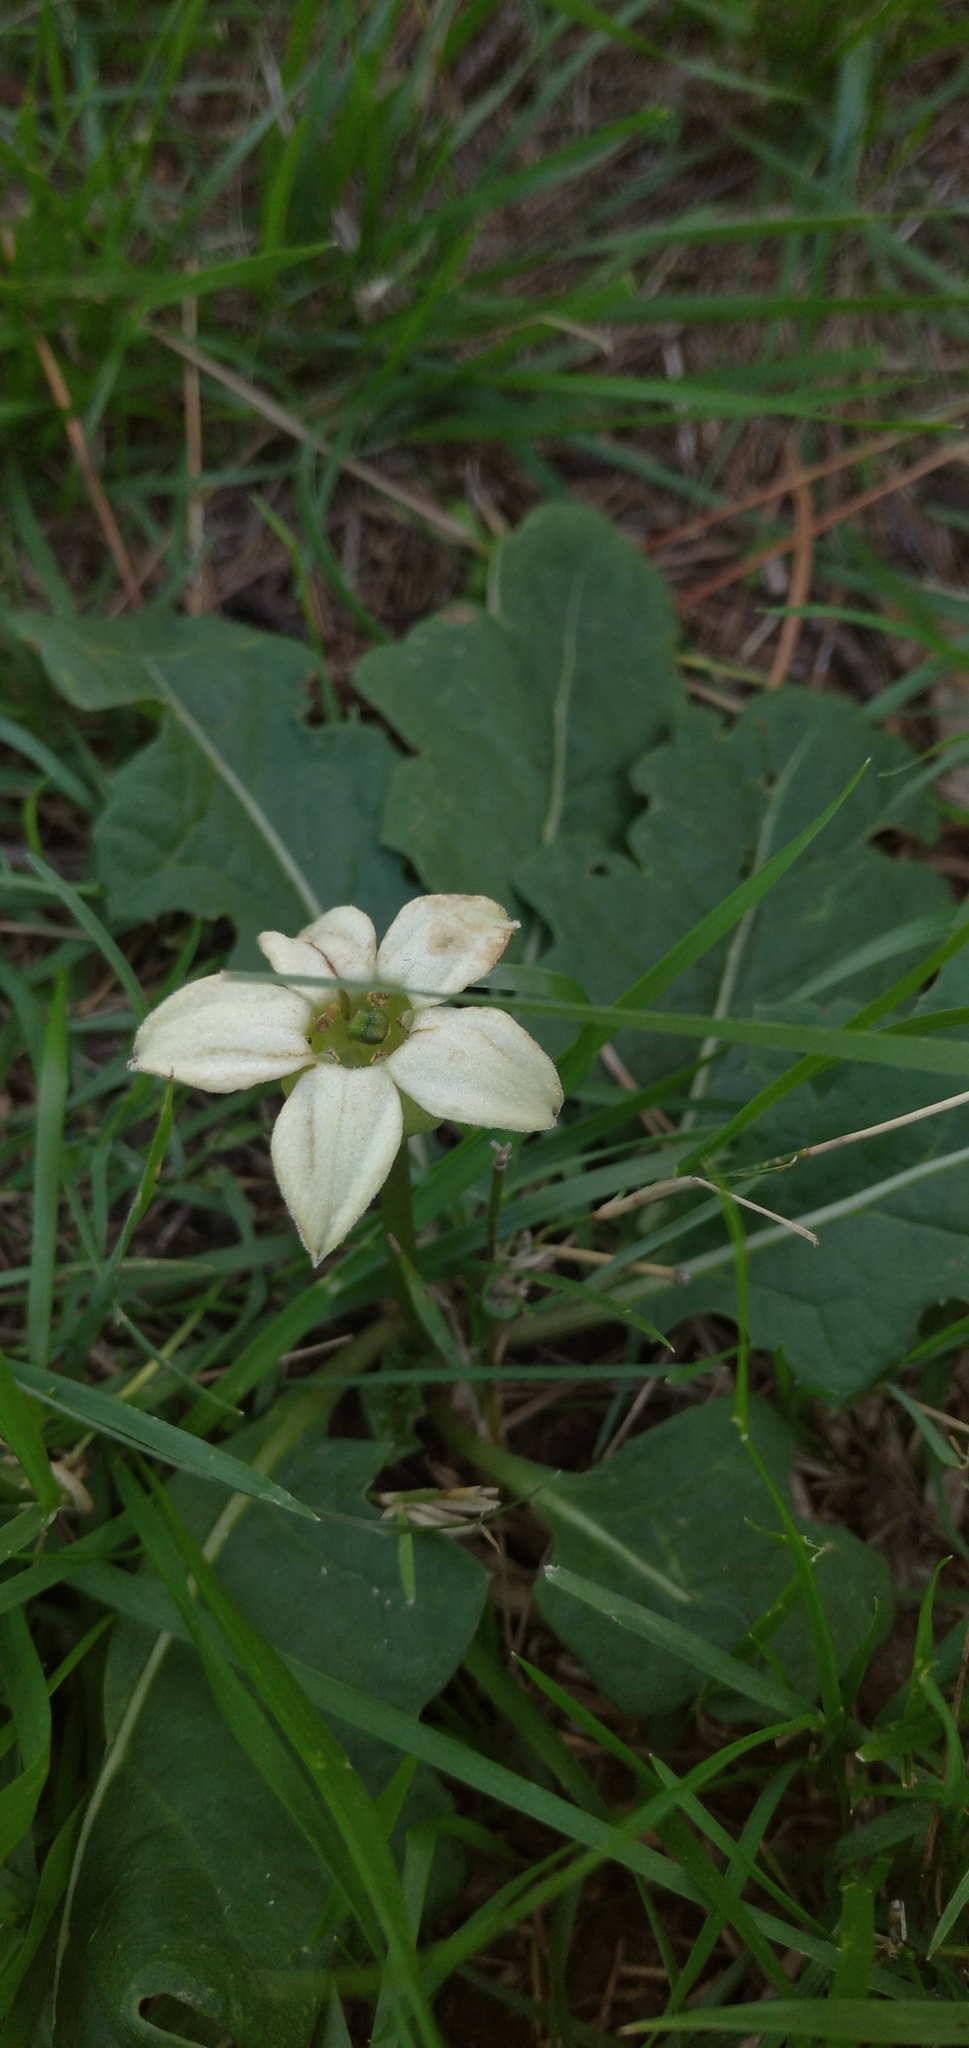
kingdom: Plantae
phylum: Tracheophyta
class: Magnoliopsida
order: Solanales
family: Solanaceae
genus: Jaborosa
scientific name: Jaborosa runcinata
